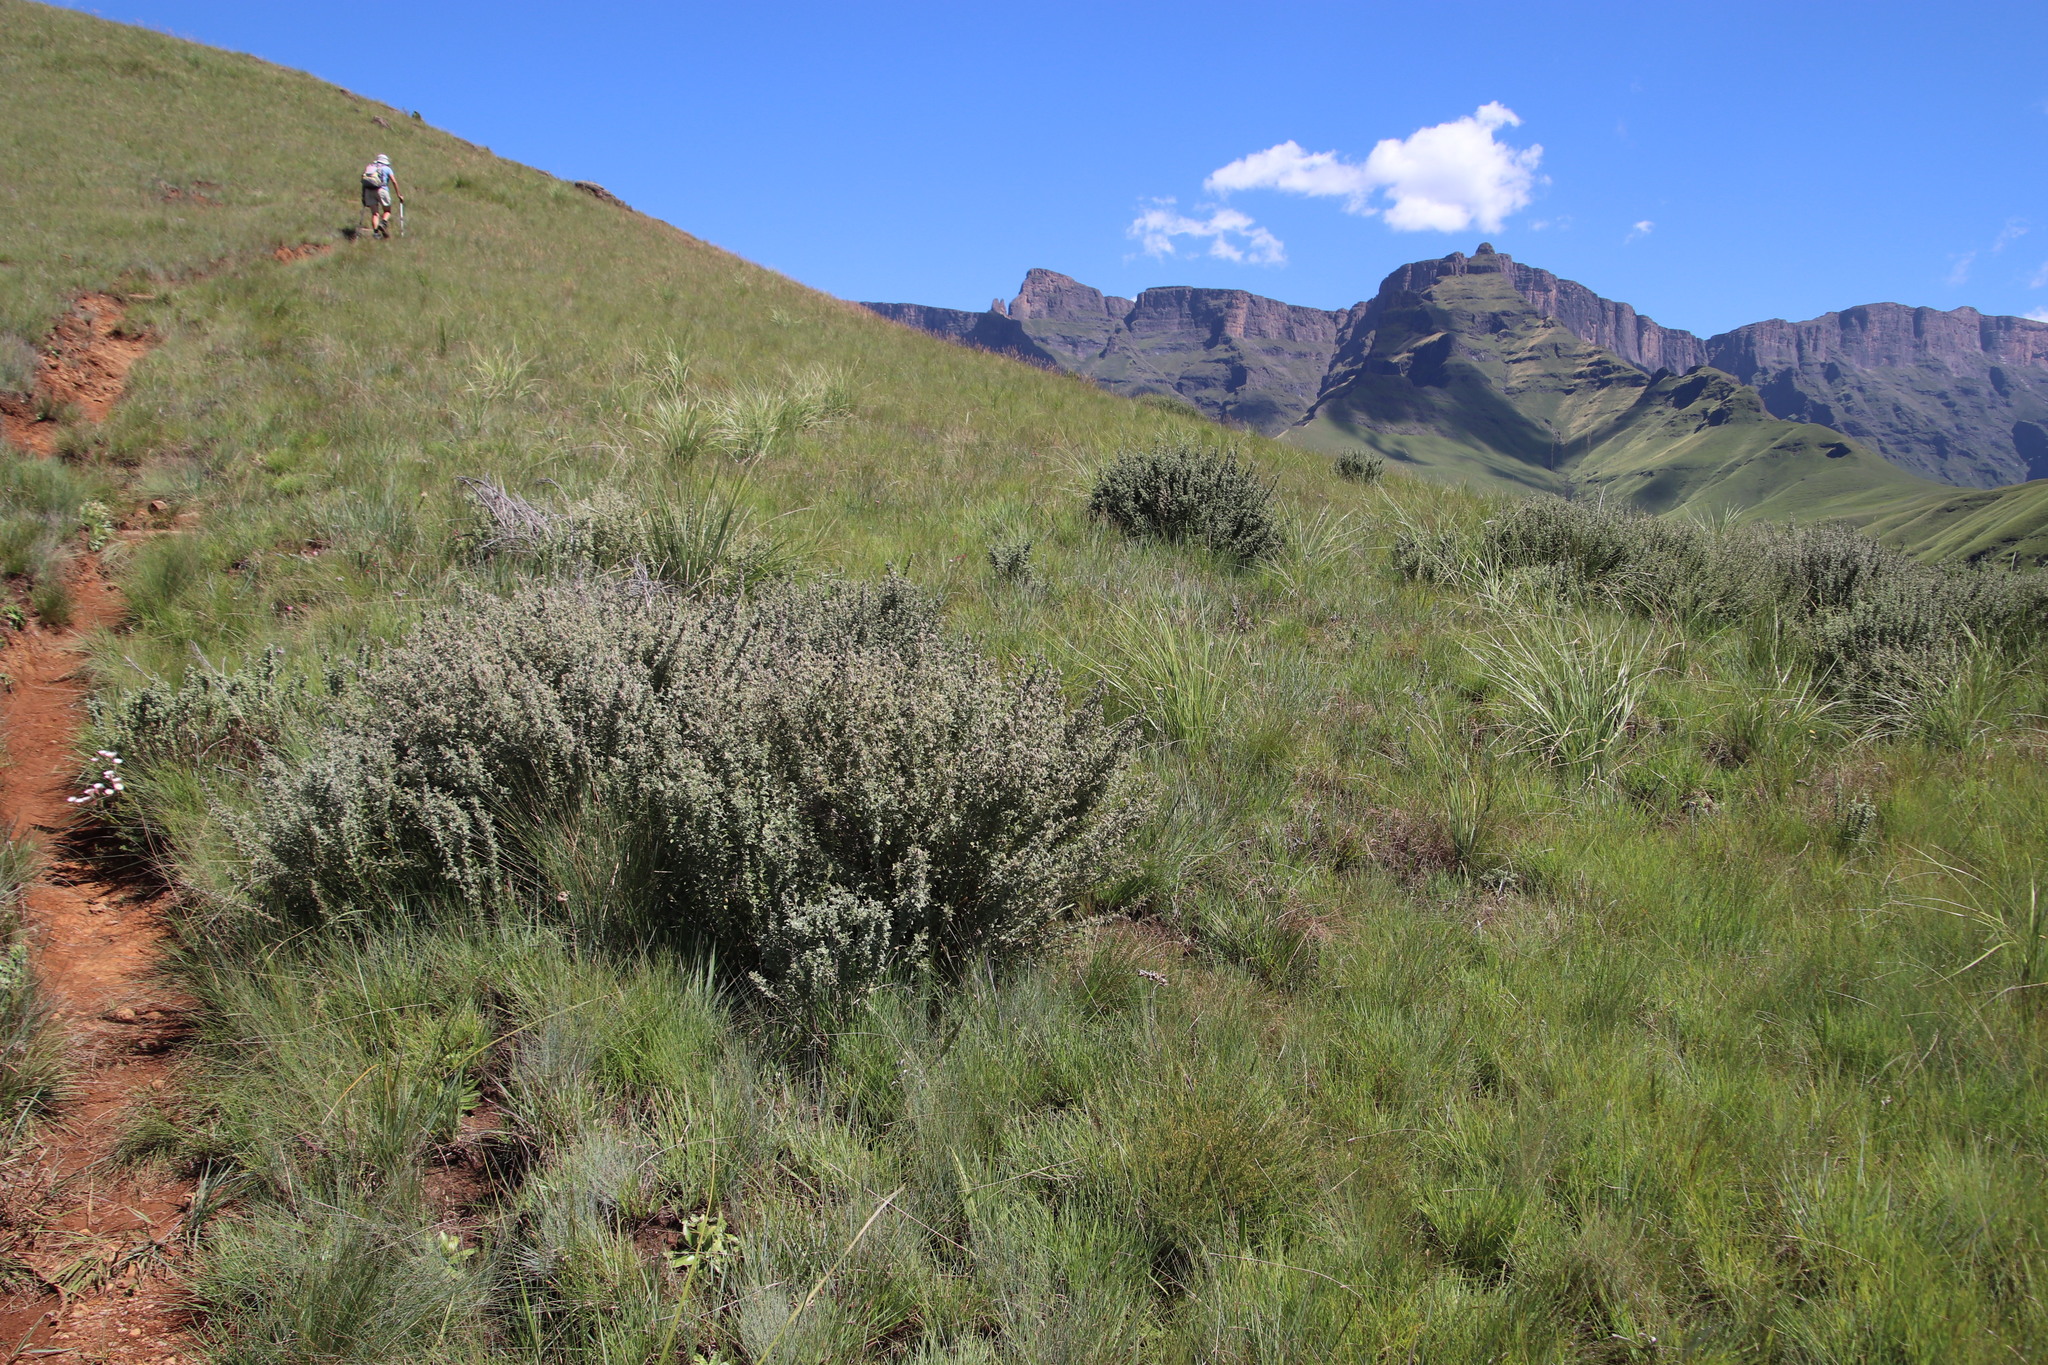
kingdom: Plantae
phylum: Tracheophyta
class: Magnoliopsida
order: Fabales
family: Fabaceae
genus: Lotononis
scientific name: Lotononis lotononoides
